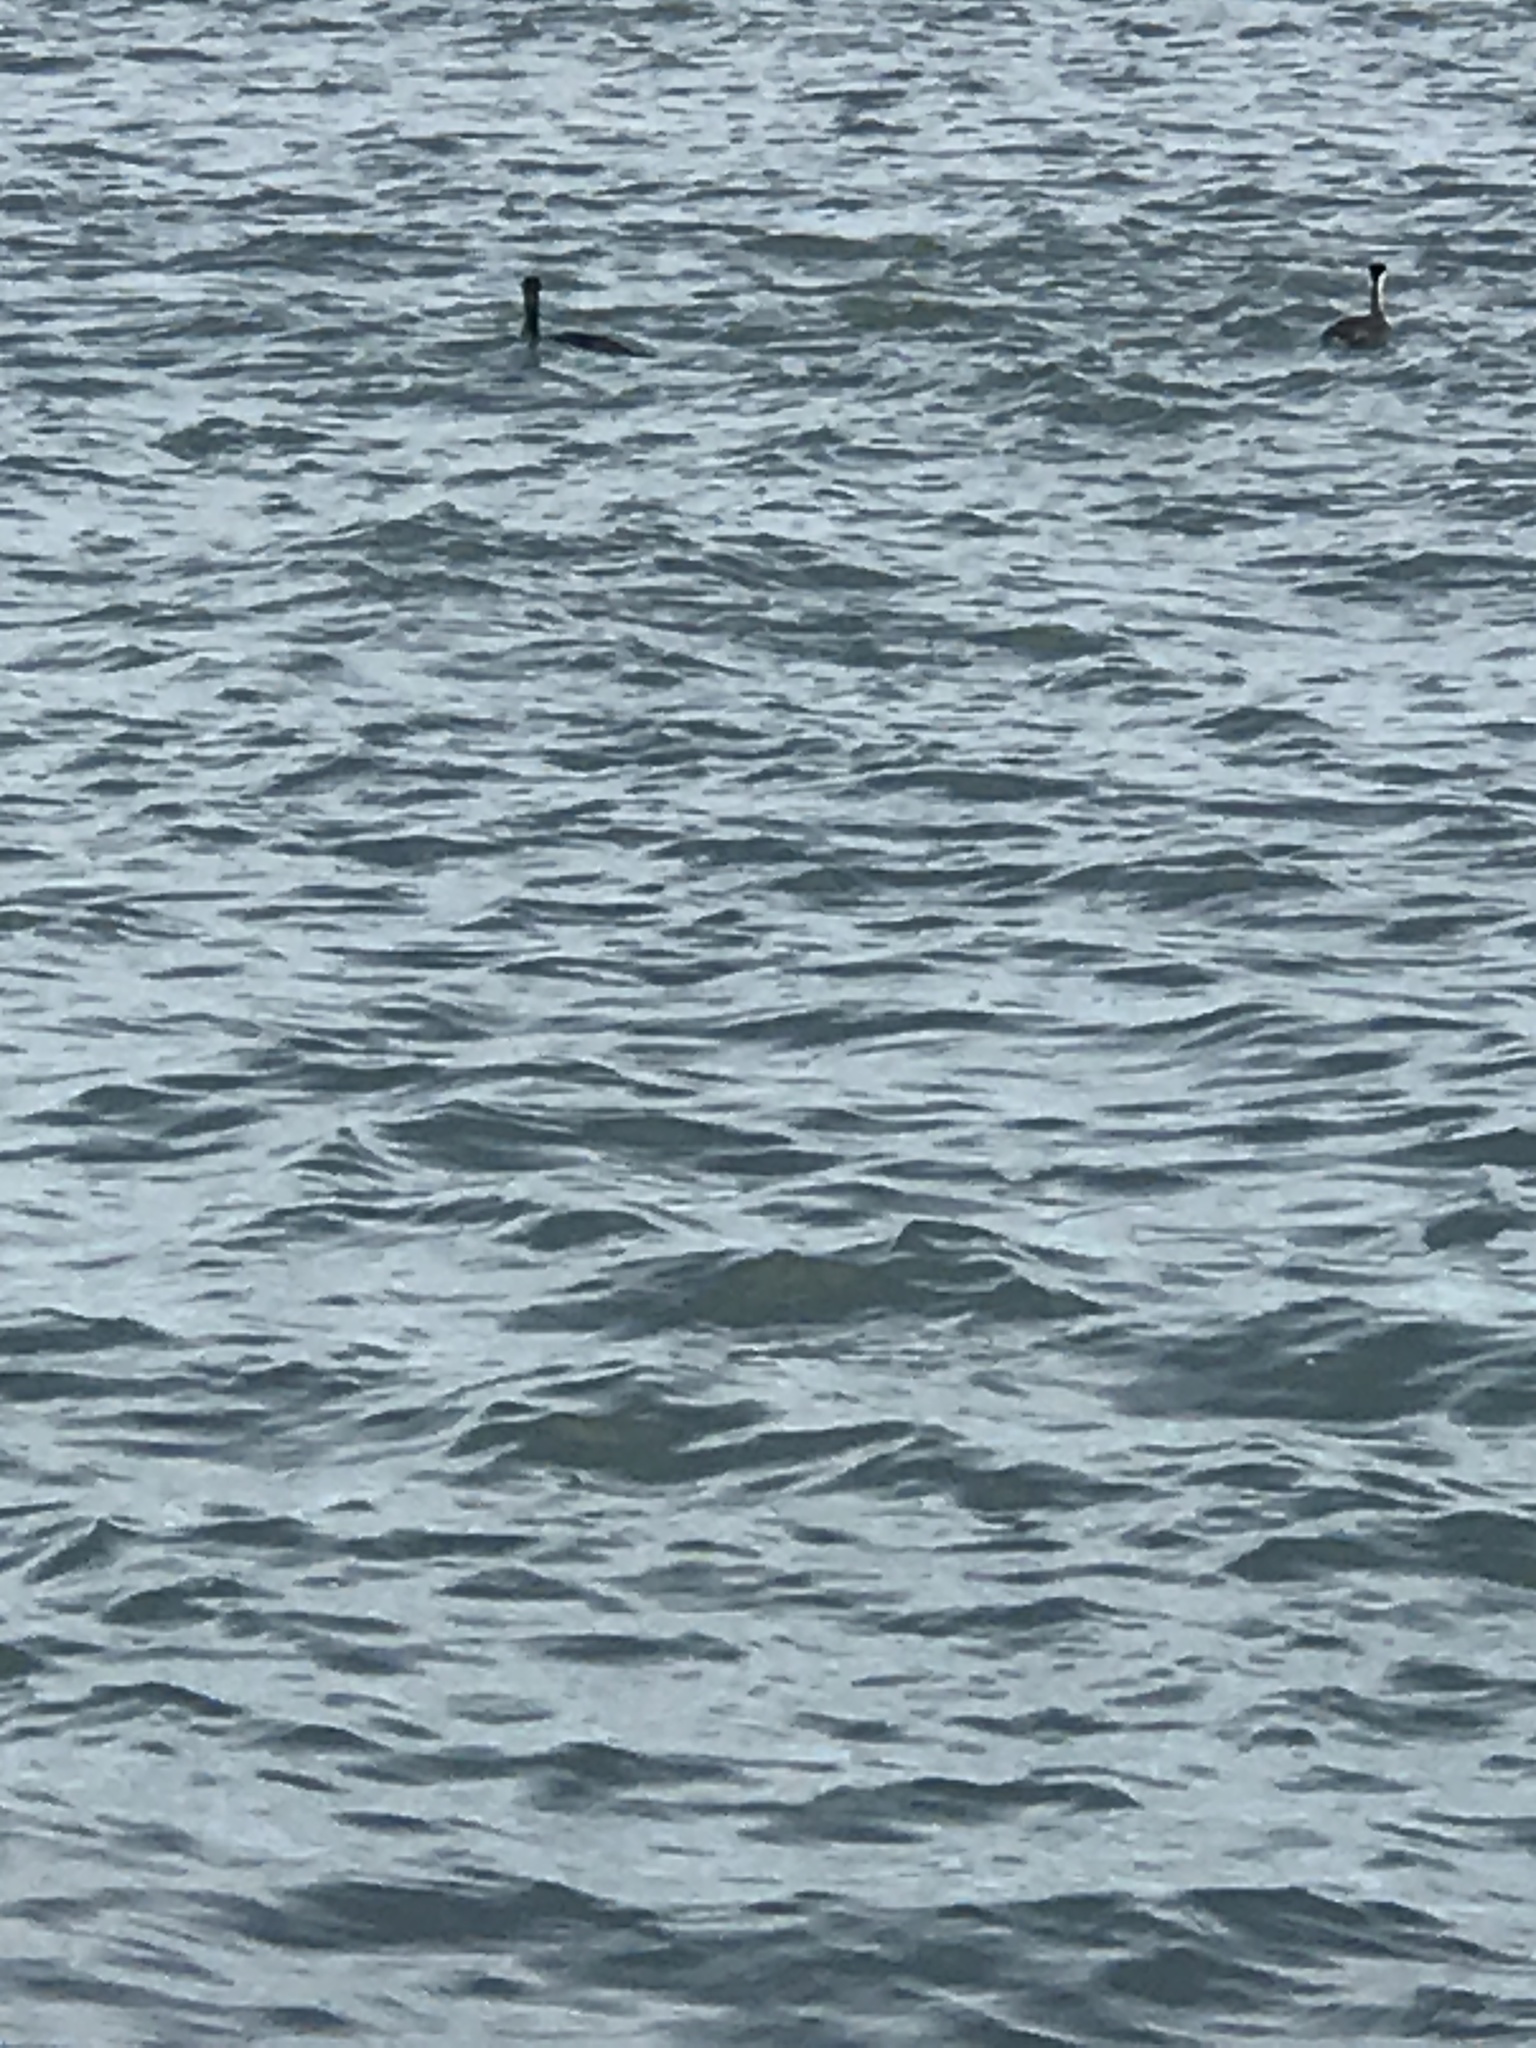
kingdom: Animalia
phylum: Chordata
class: Aves
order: Podicipediformes
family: Podicipedidae
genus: Aechmophorus
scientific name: Aechmophorus
